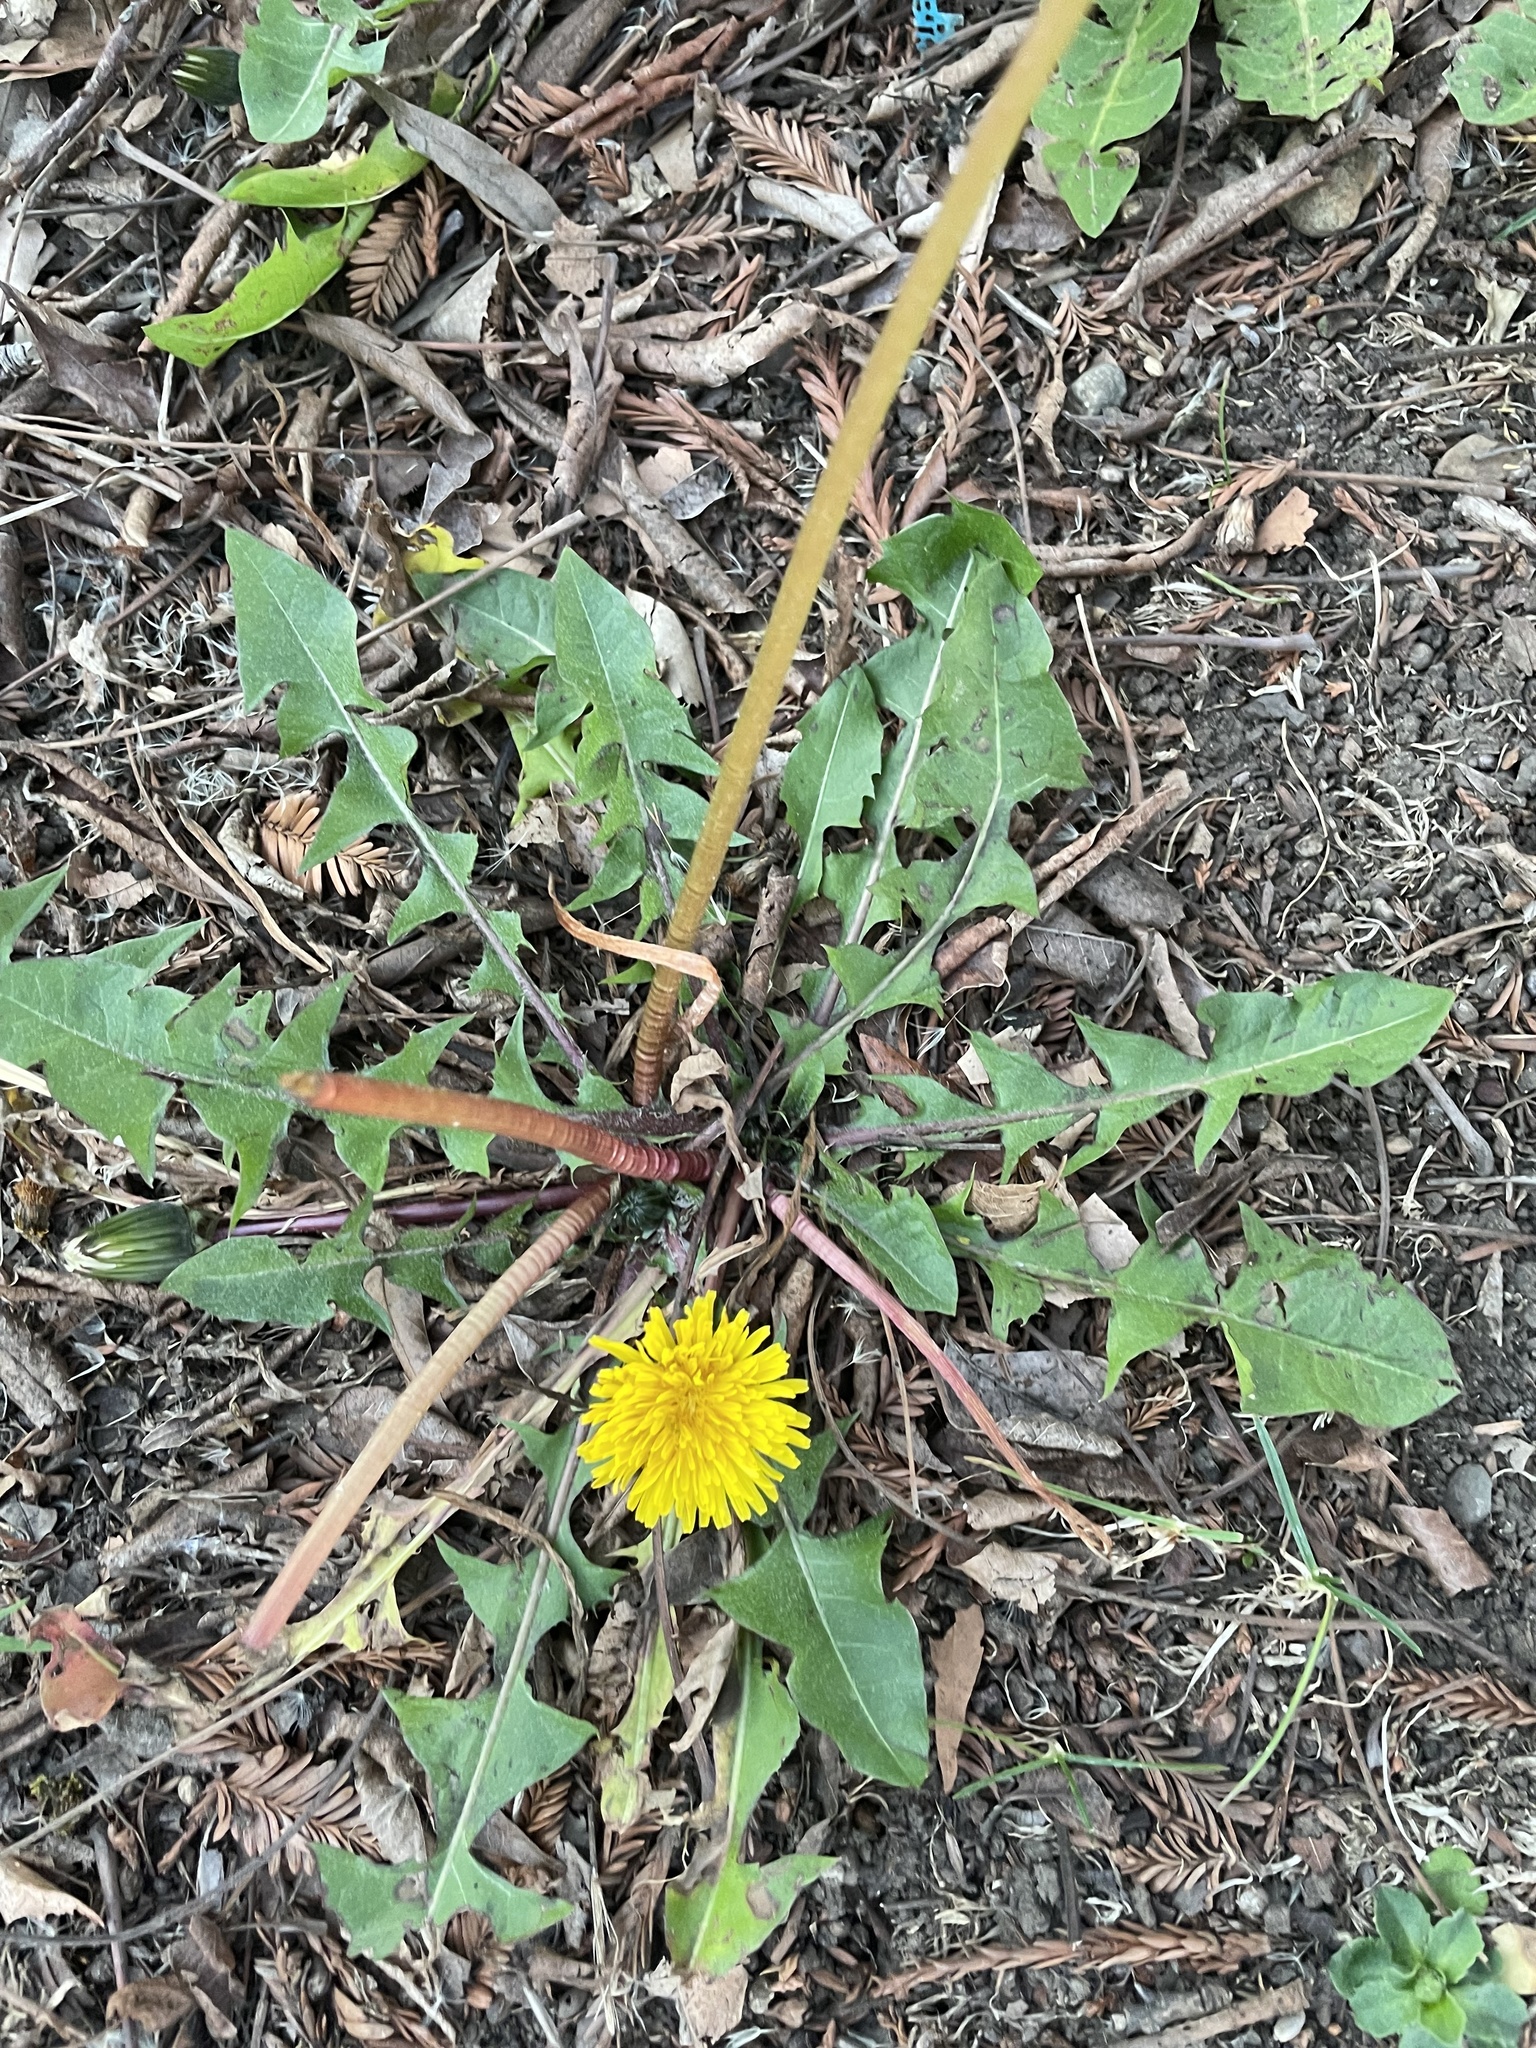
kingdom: Plantae
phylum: Tracheophyta
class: Magnoliopsida
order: Asterales
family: Asteraceae
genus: Taraxacum
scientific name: Taraxacum officinale
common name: Common dandelion
